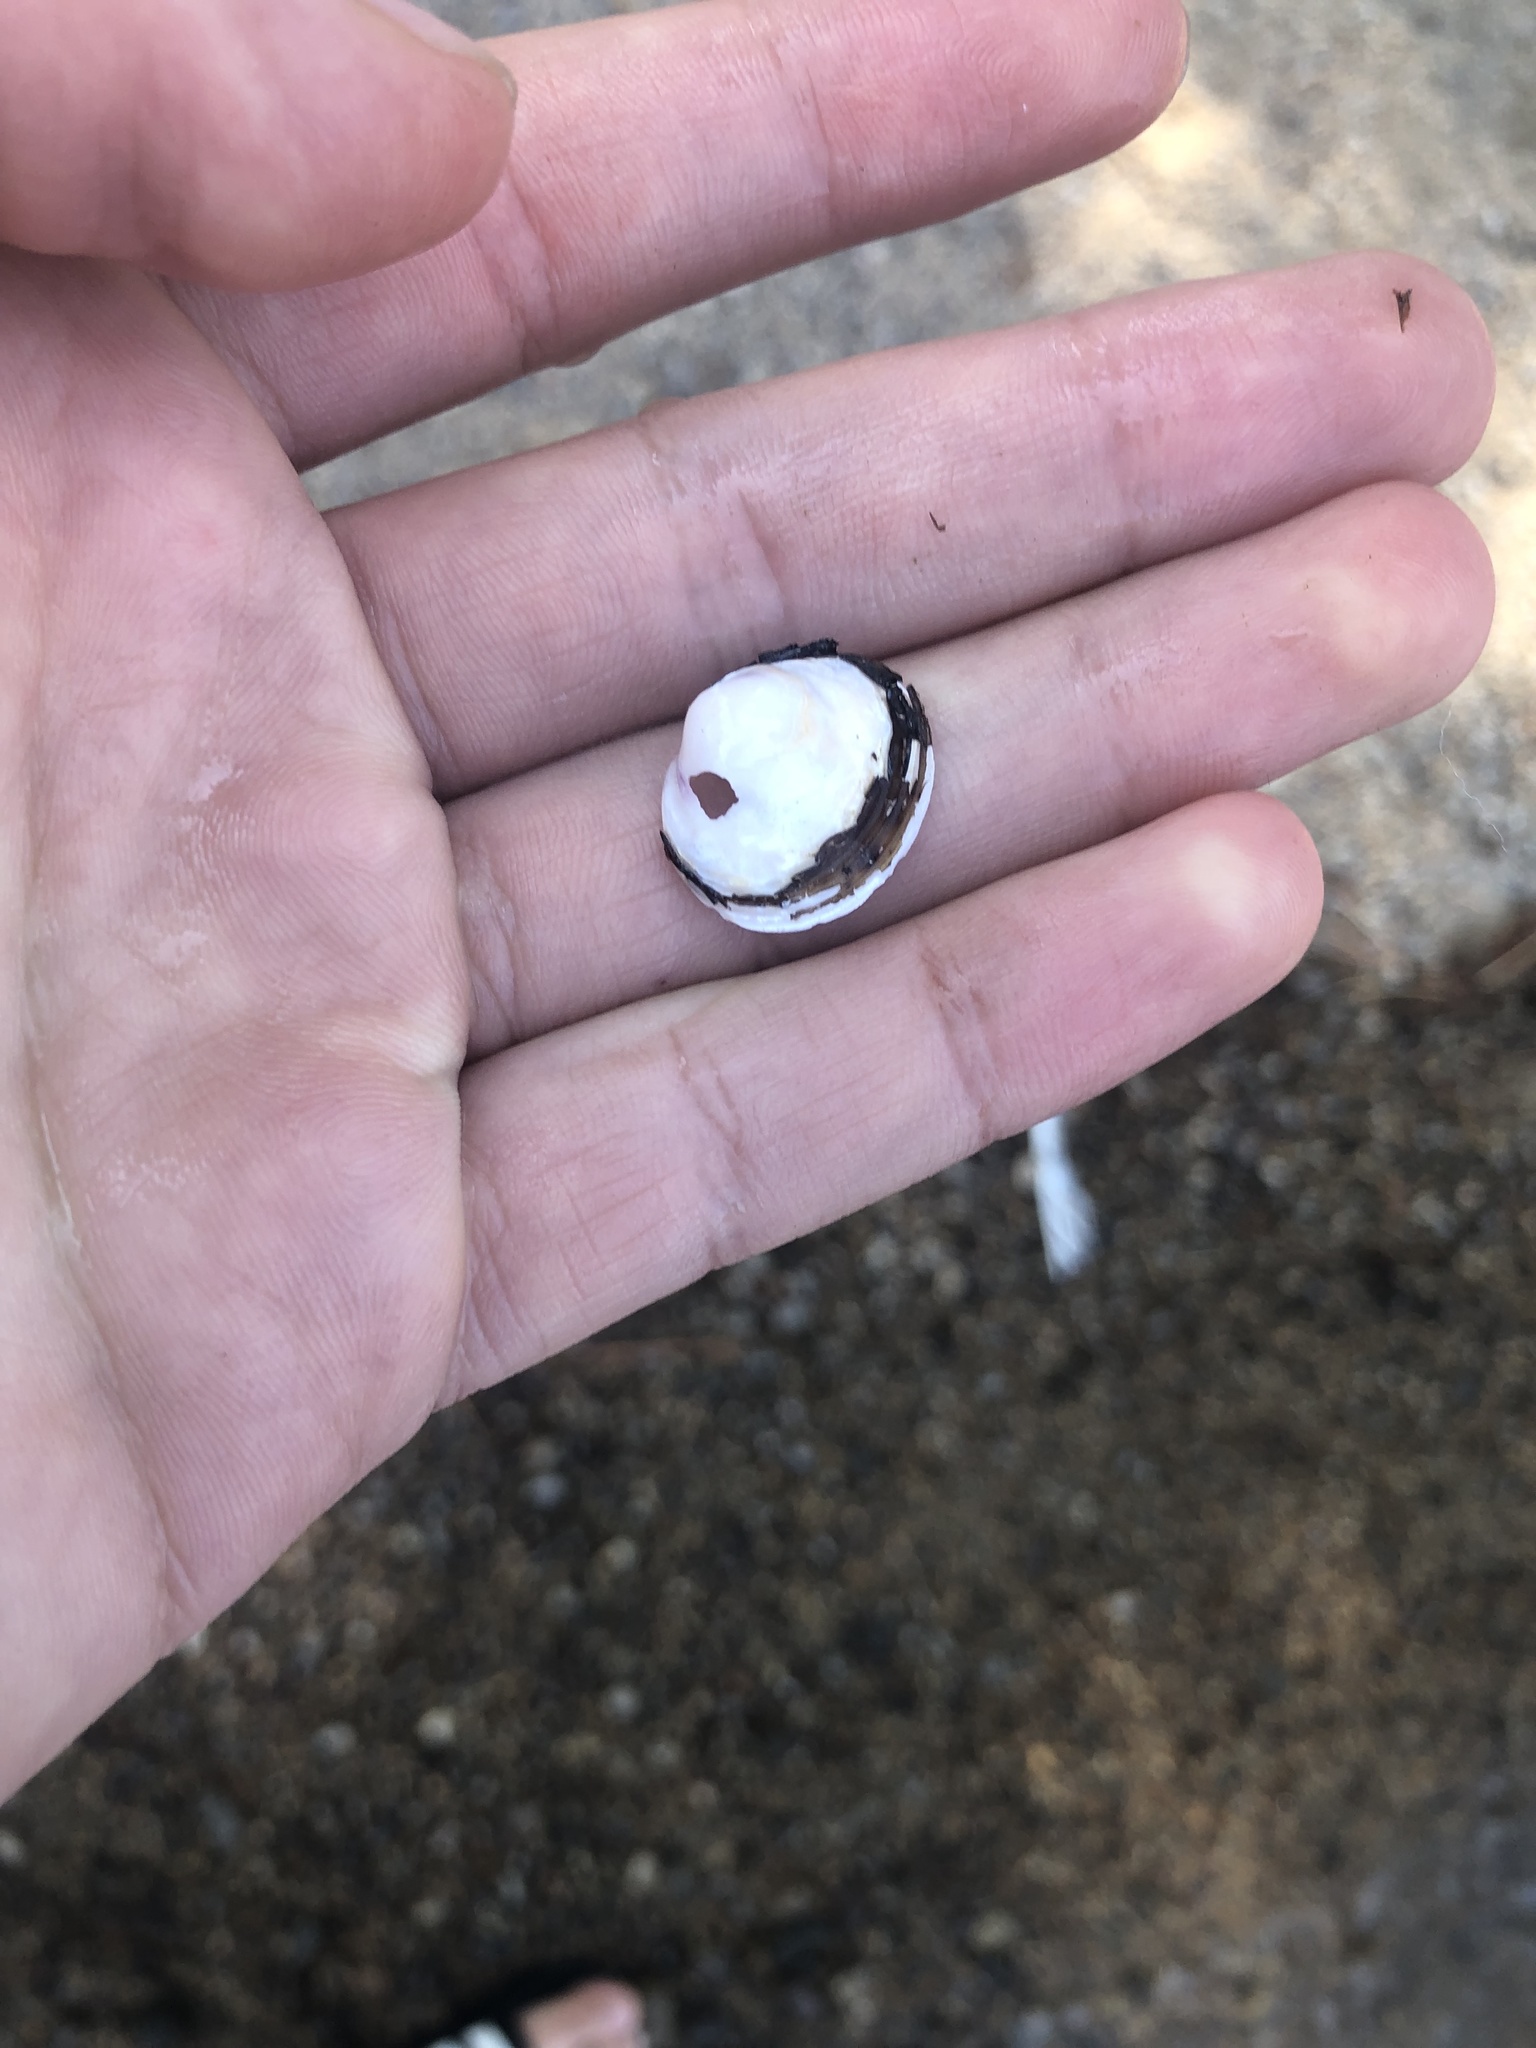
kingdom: Animalia
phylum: Mollusca
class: Bivalvia
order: Venerida
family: Cyrenidae
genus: Corbicula
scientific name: Corbicula fluminea
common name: Asian clam
